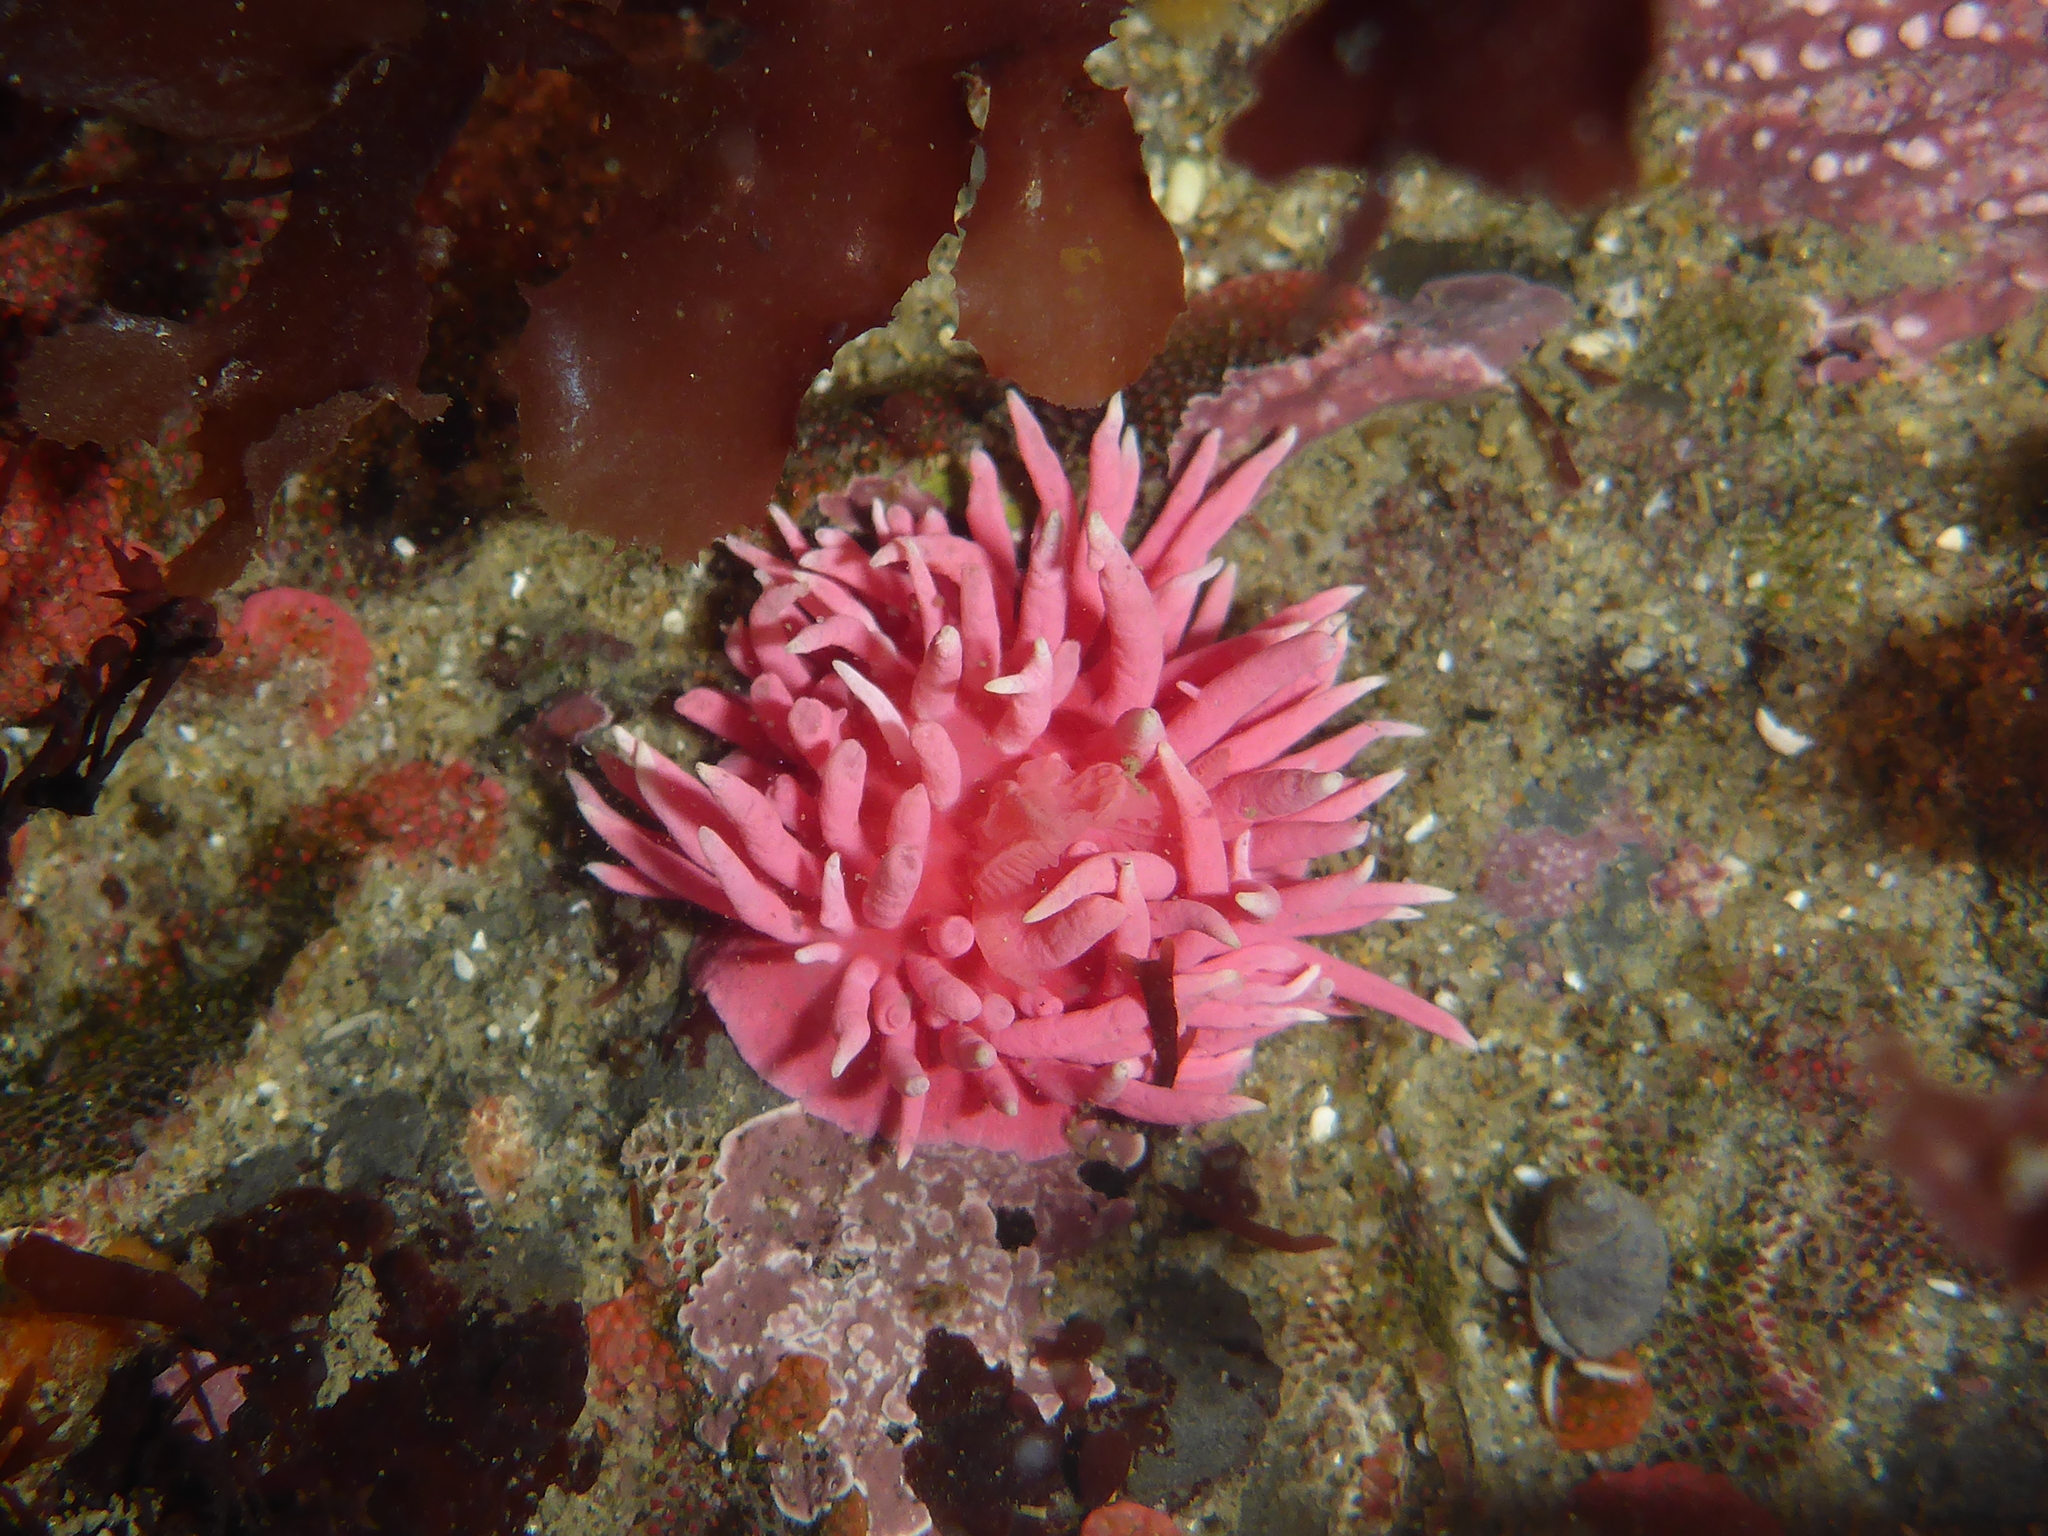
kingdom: Animalia
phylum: Mollusca
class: Gastropoda
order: Nudibranchia
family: Goniodorididae
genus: Okenia
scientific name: Okenia
